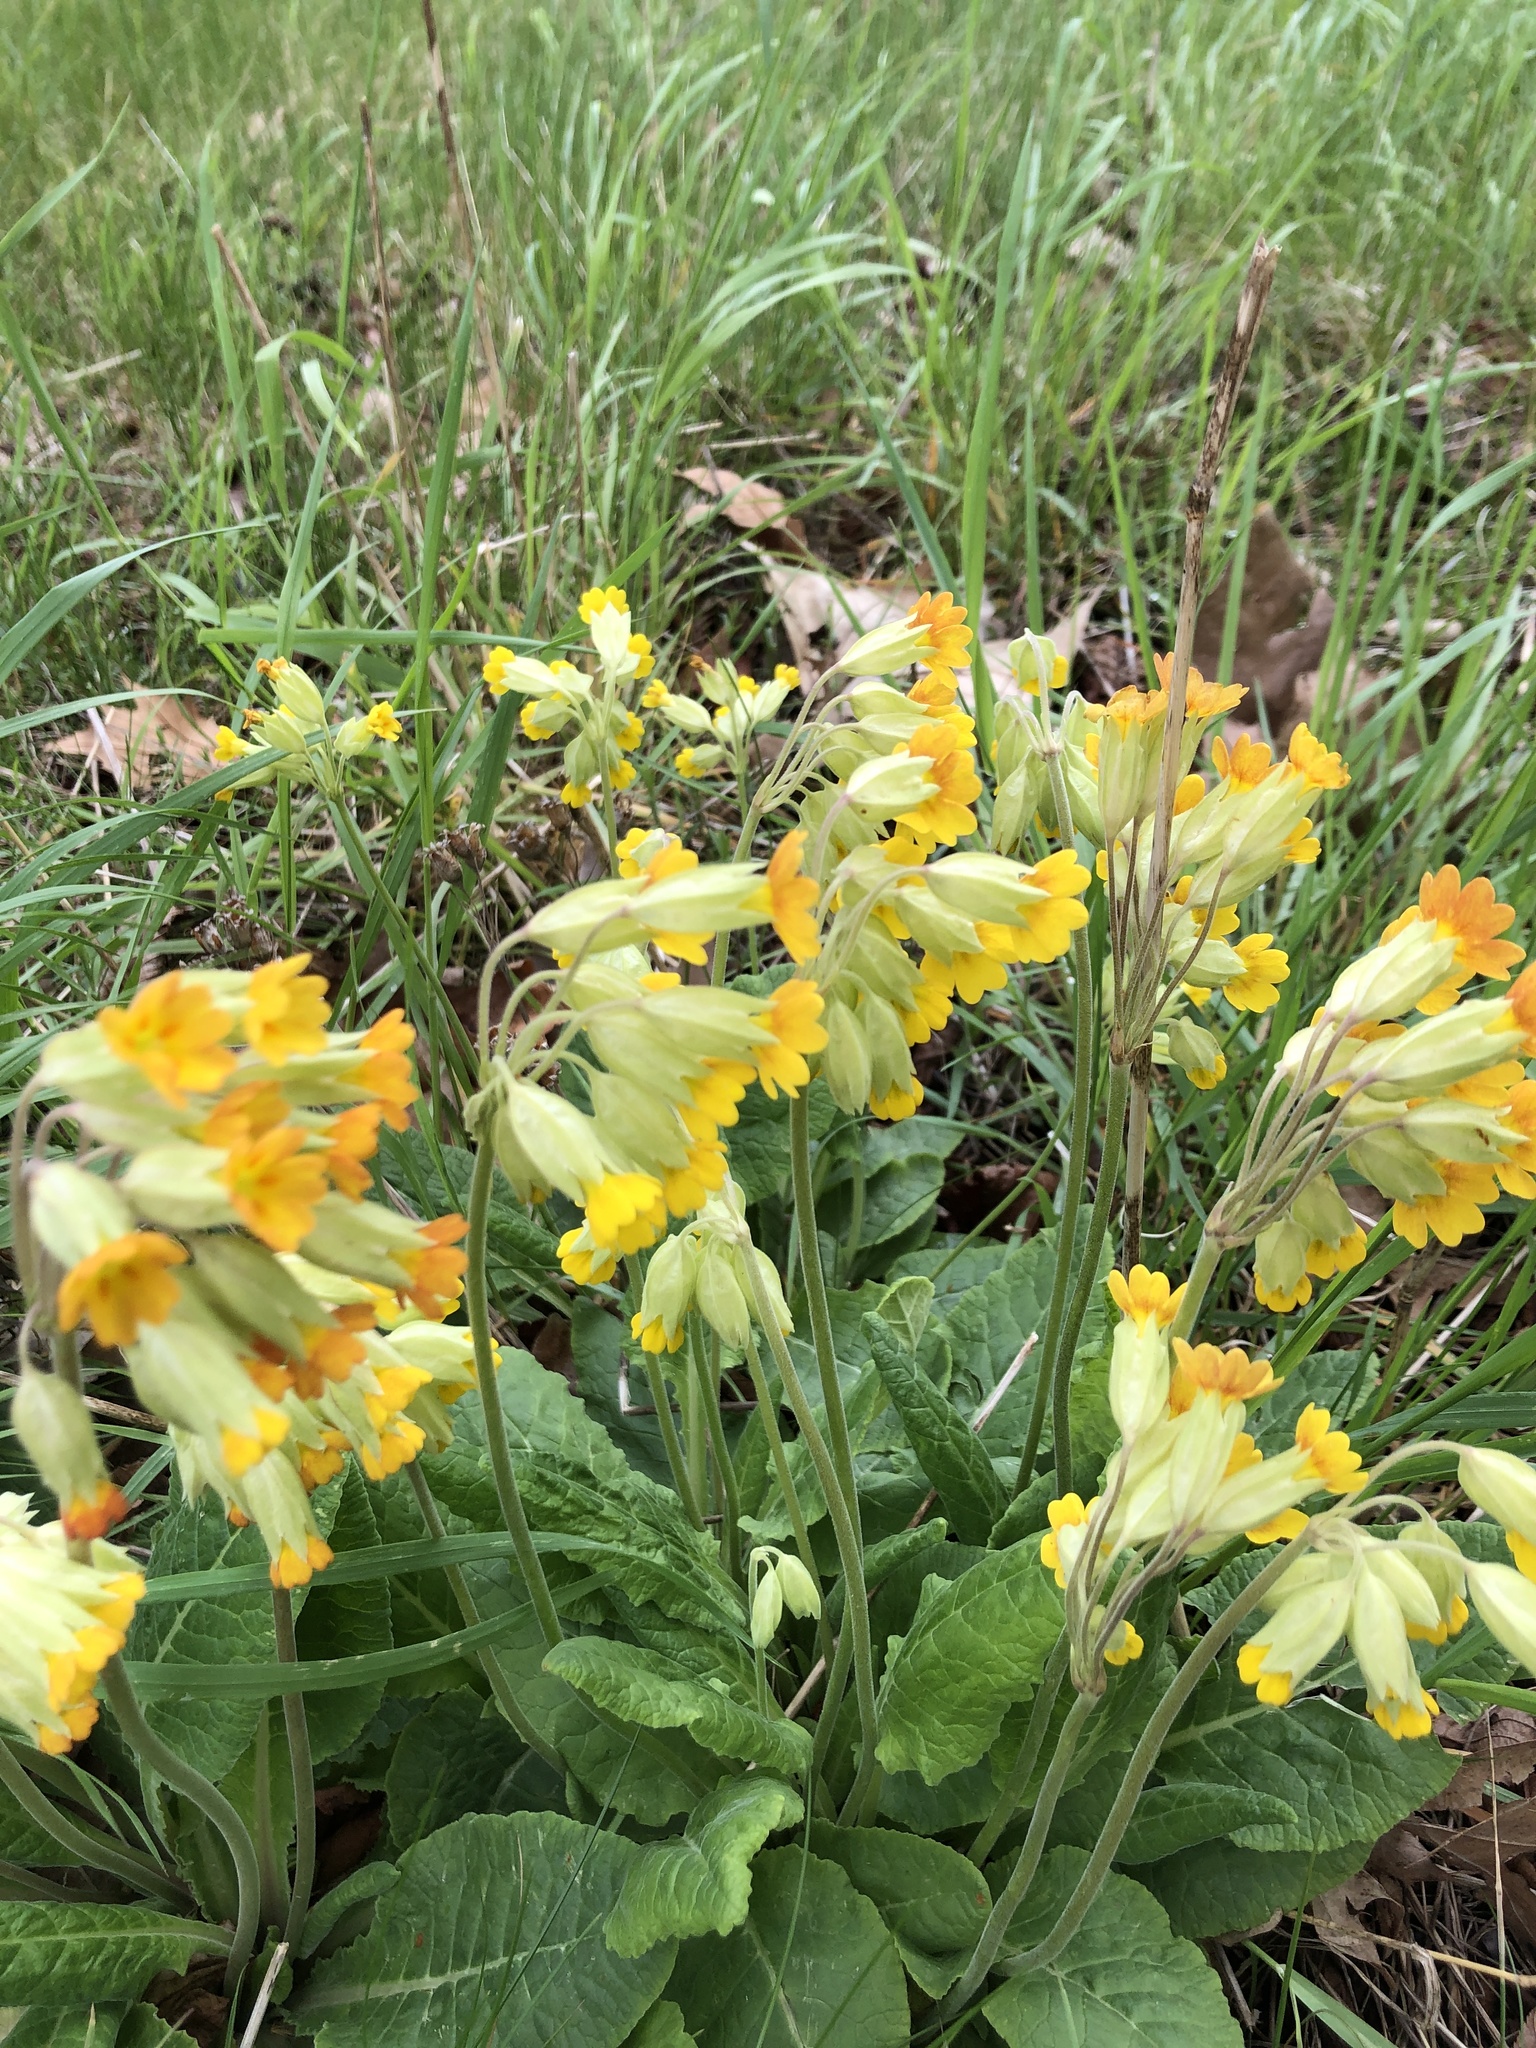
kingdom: Plantae
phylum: Tracheophyta
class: Magnoliopsida
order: Ericales
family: Primulaceae
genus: Primula
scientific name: Primula veris
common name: Cowslip
